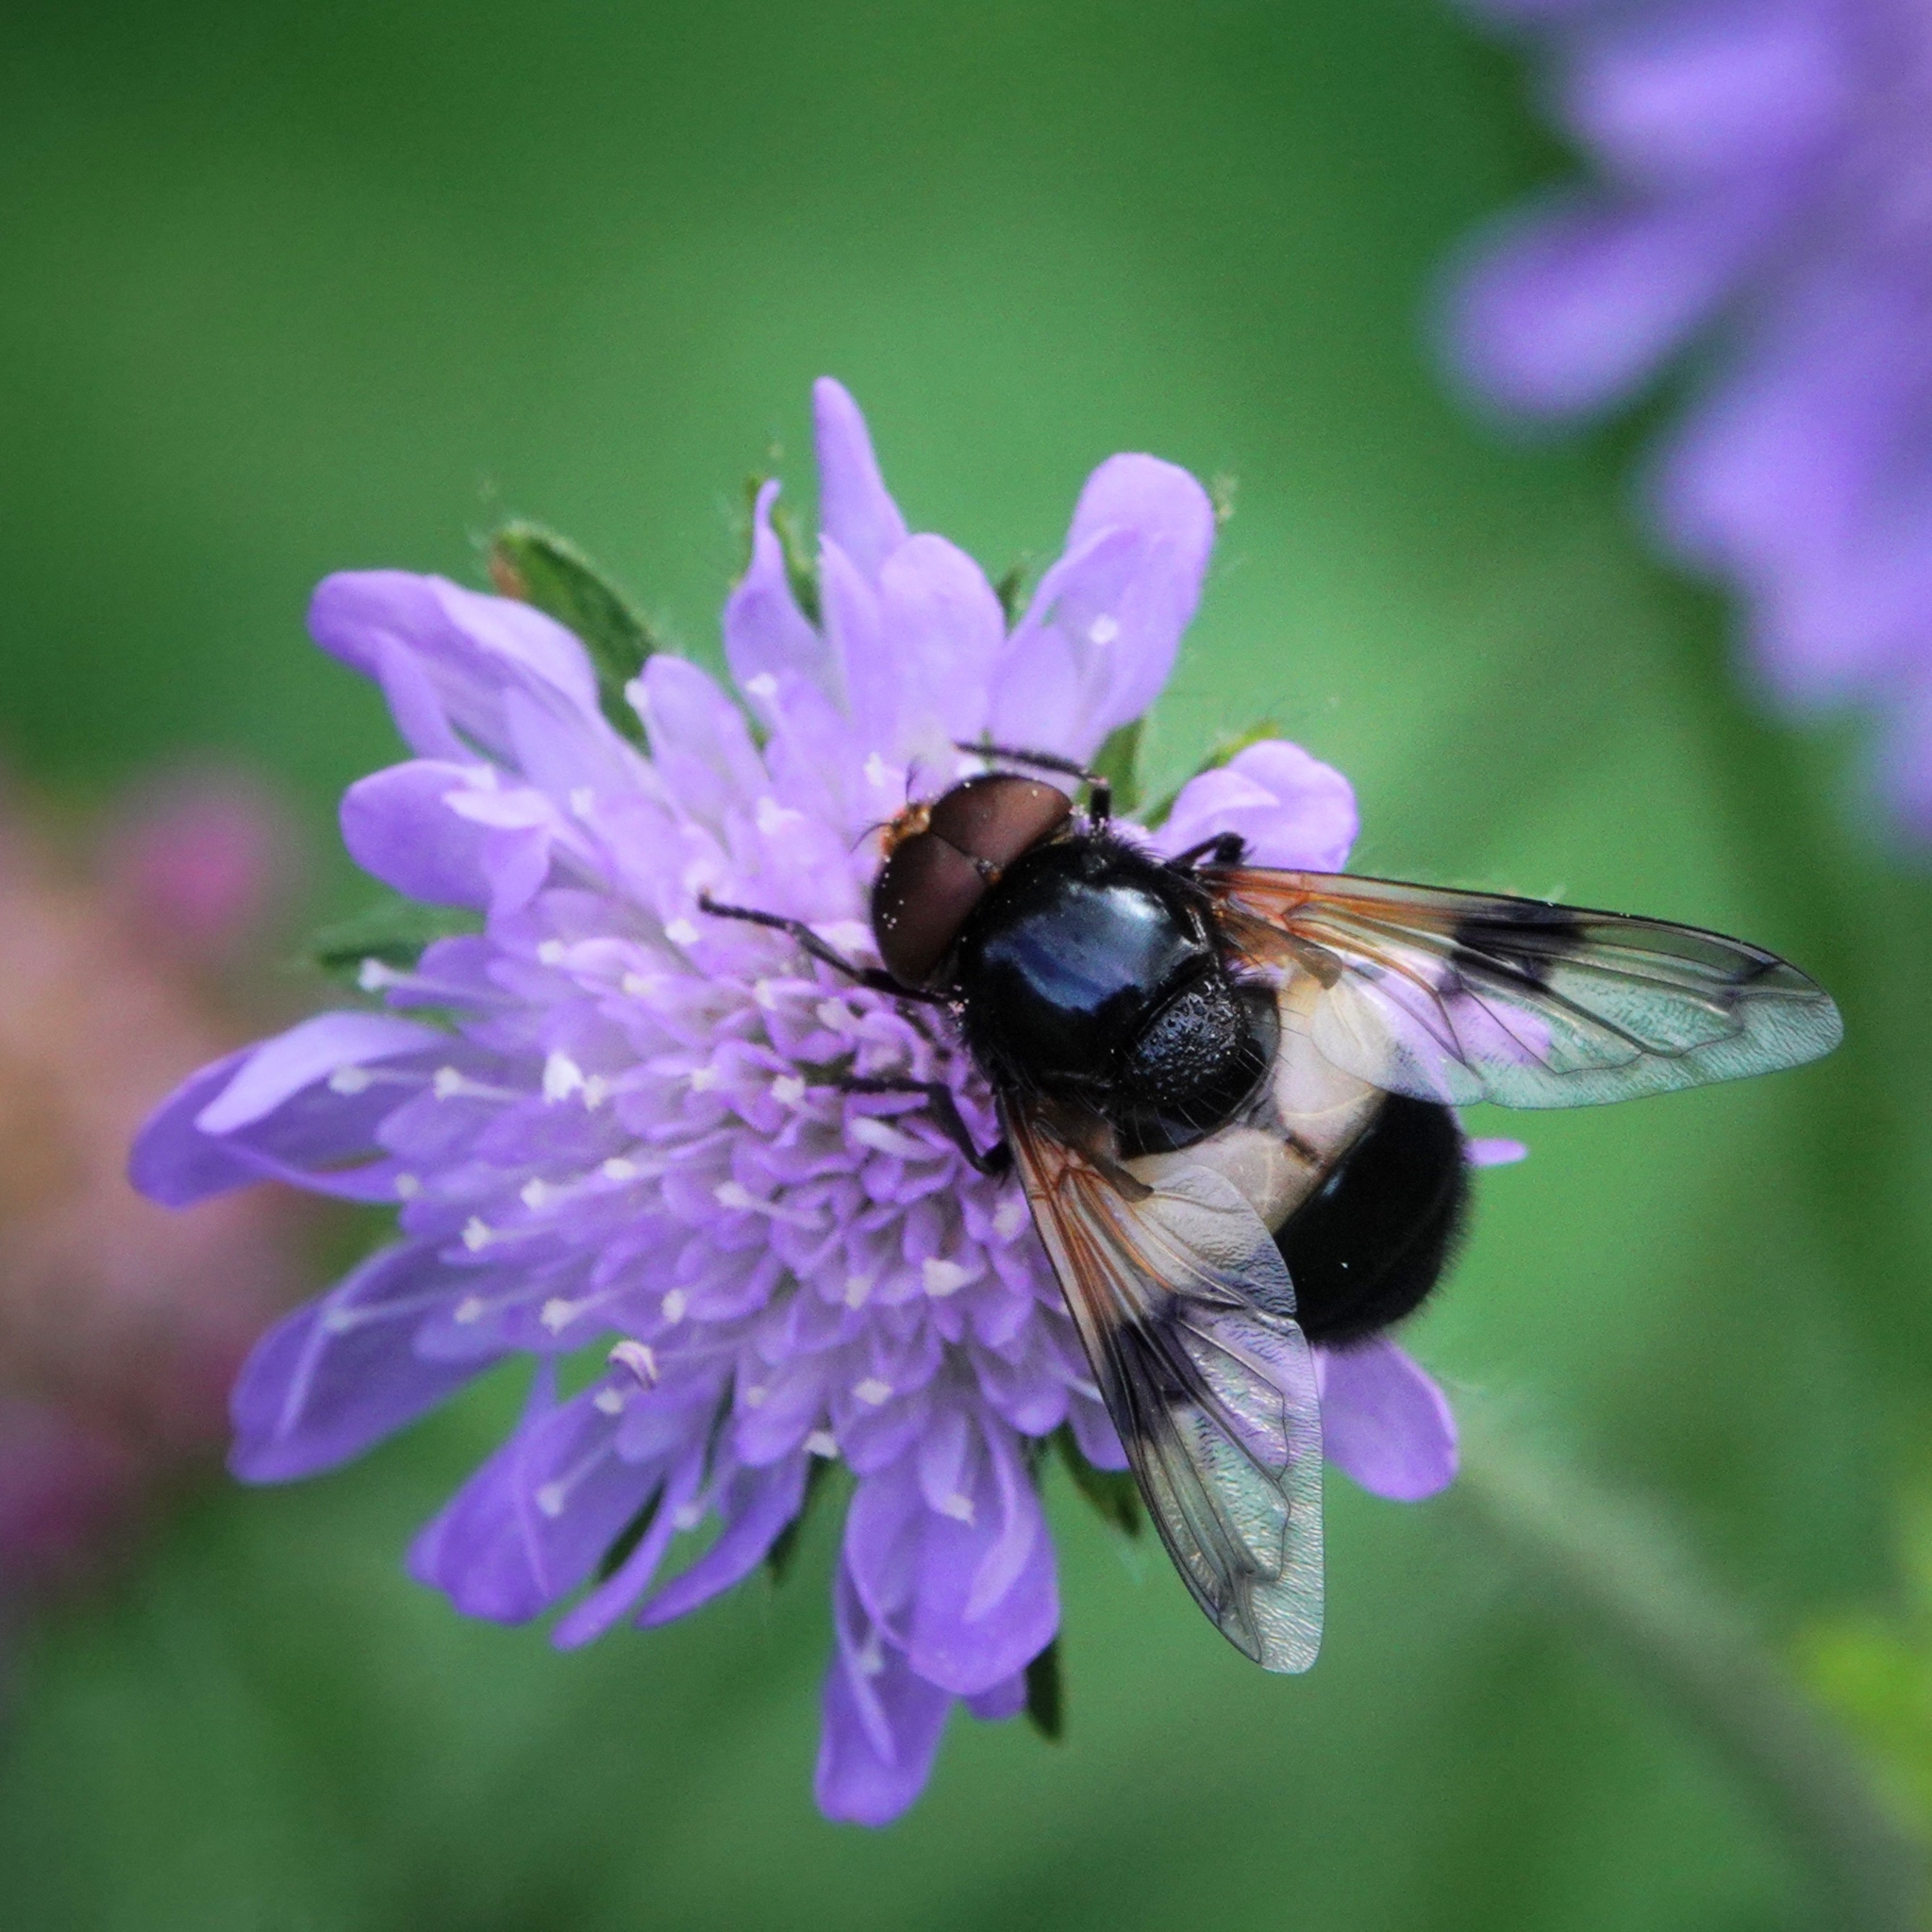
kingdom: Animalia
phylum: Arthropoda
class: Insecta
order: Diptera
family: Syrphidae
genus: Volucella
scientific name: Volucella pellucens
